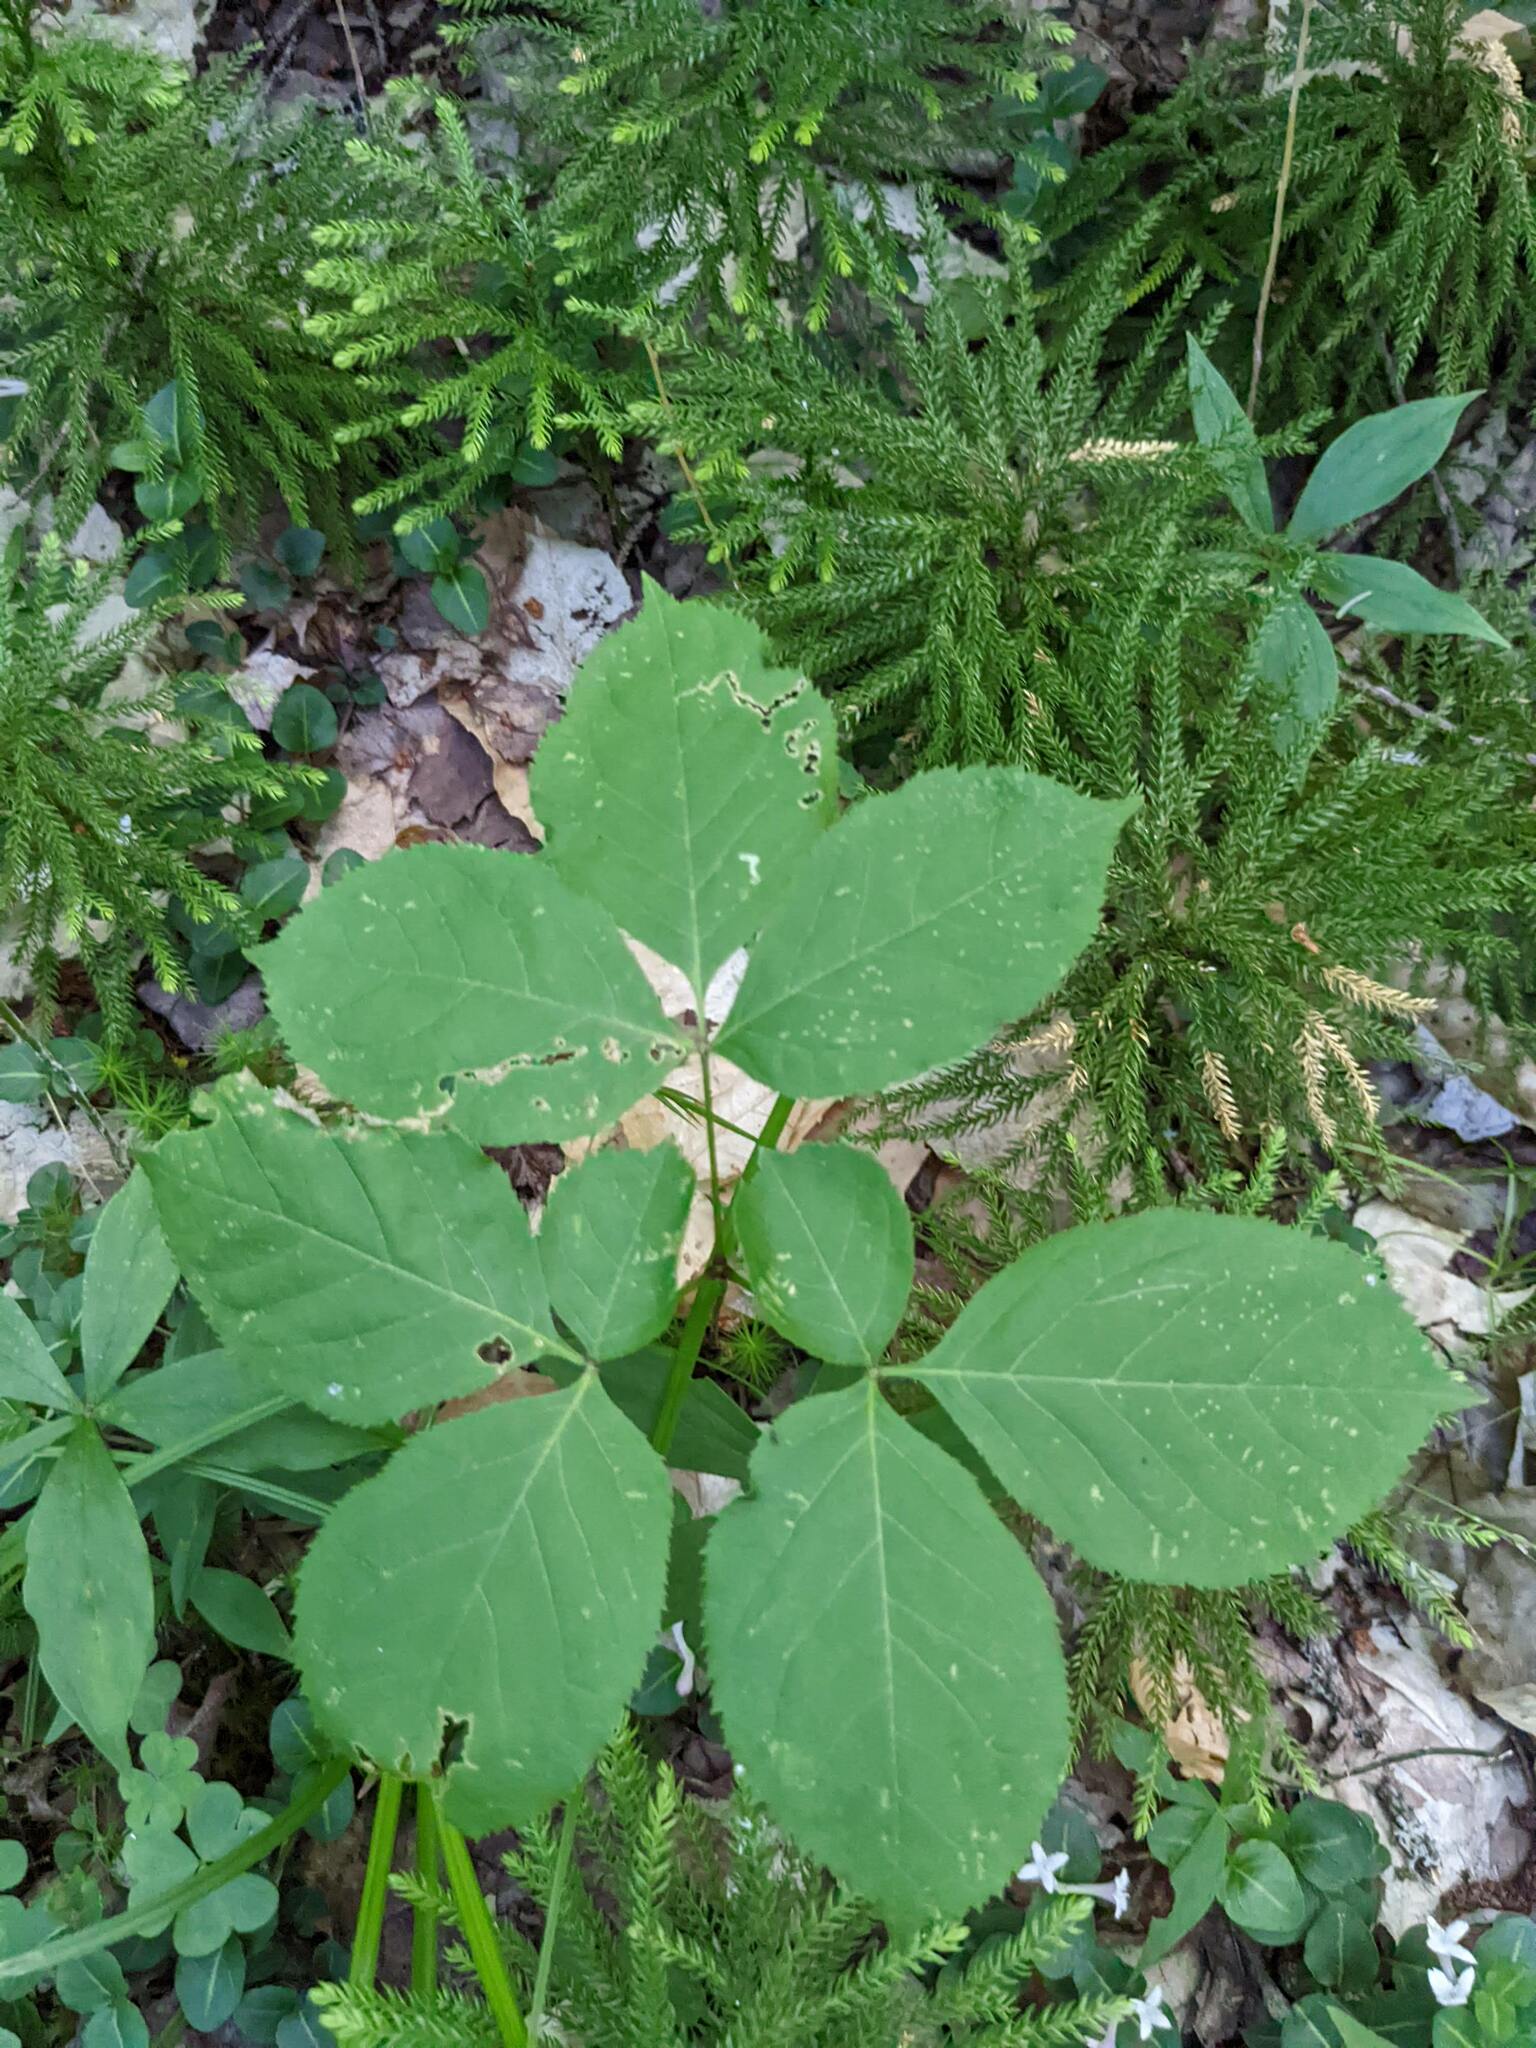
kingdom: Plantae
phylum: Tracheophyta
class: Magnoliopsida
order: Apiales
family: Araliaceae
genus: Aralia
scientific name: Aralia nudicaulis
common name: Wild sarsaparilla
